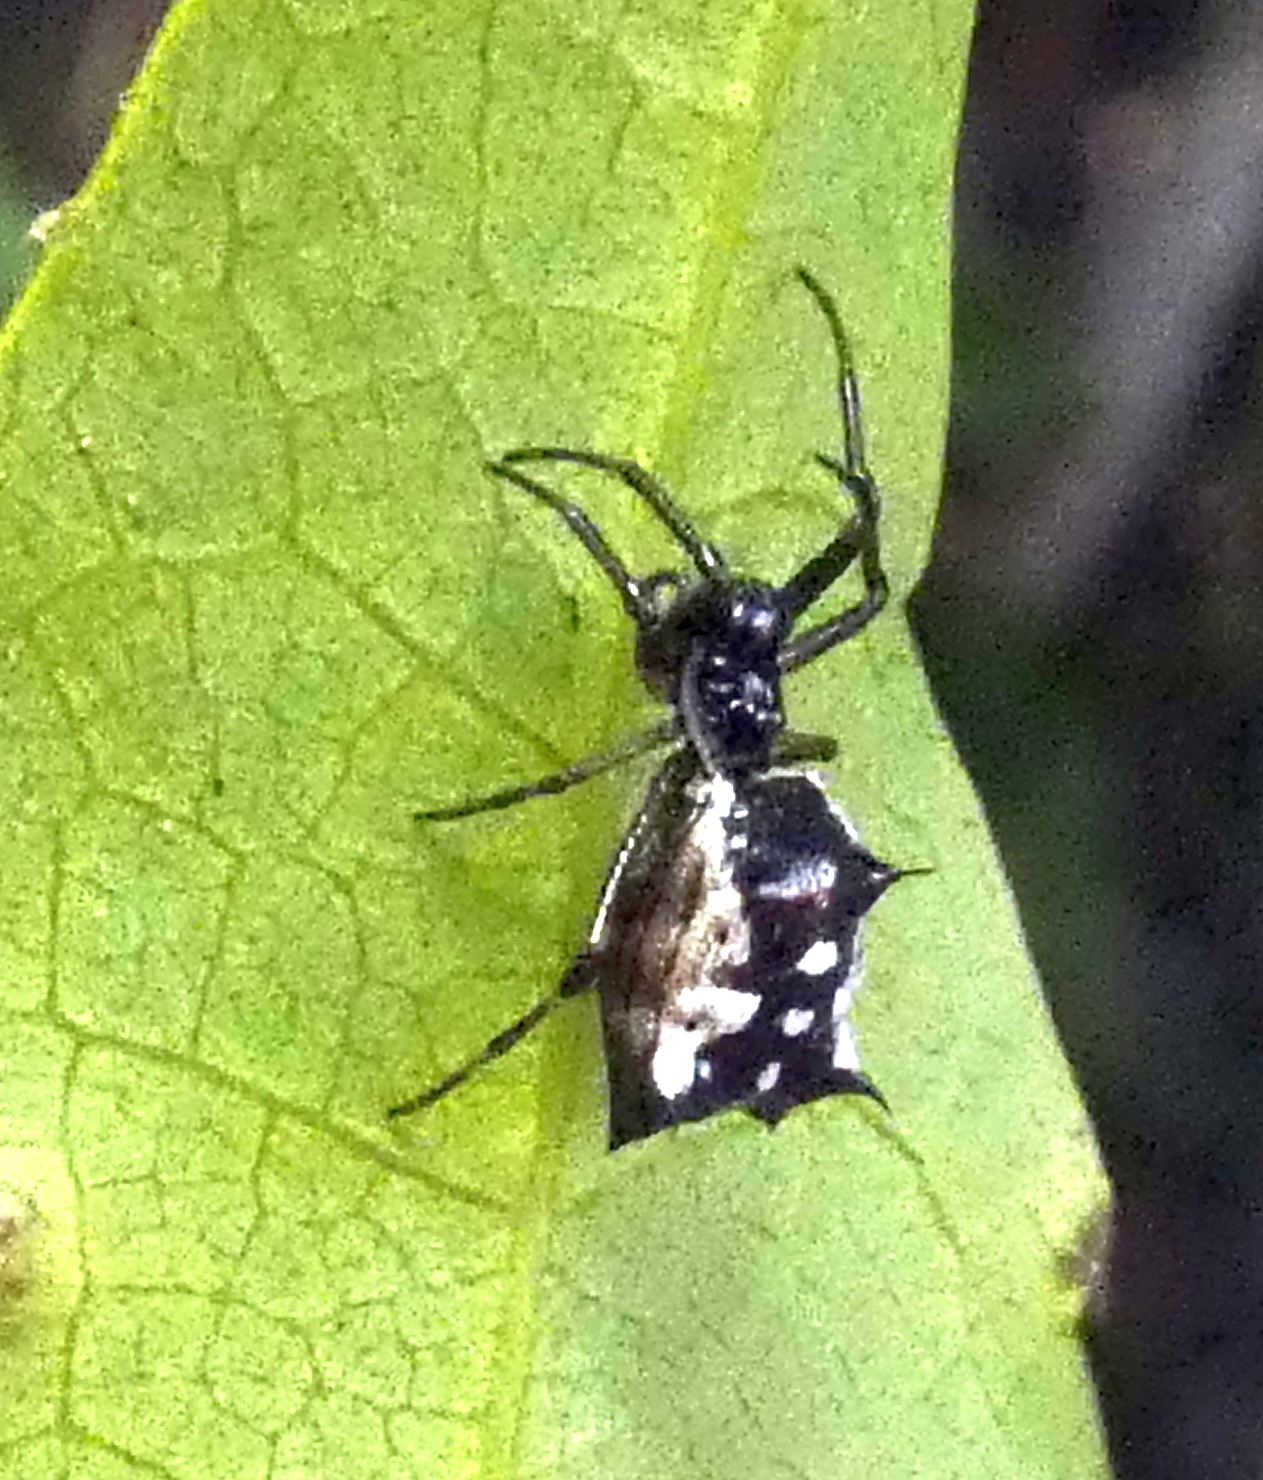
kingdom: Animalia
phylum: Arthropoda
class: Arachnida
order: Araneae
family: Araneidae
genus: Micrathena
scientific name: Micrathena picta
